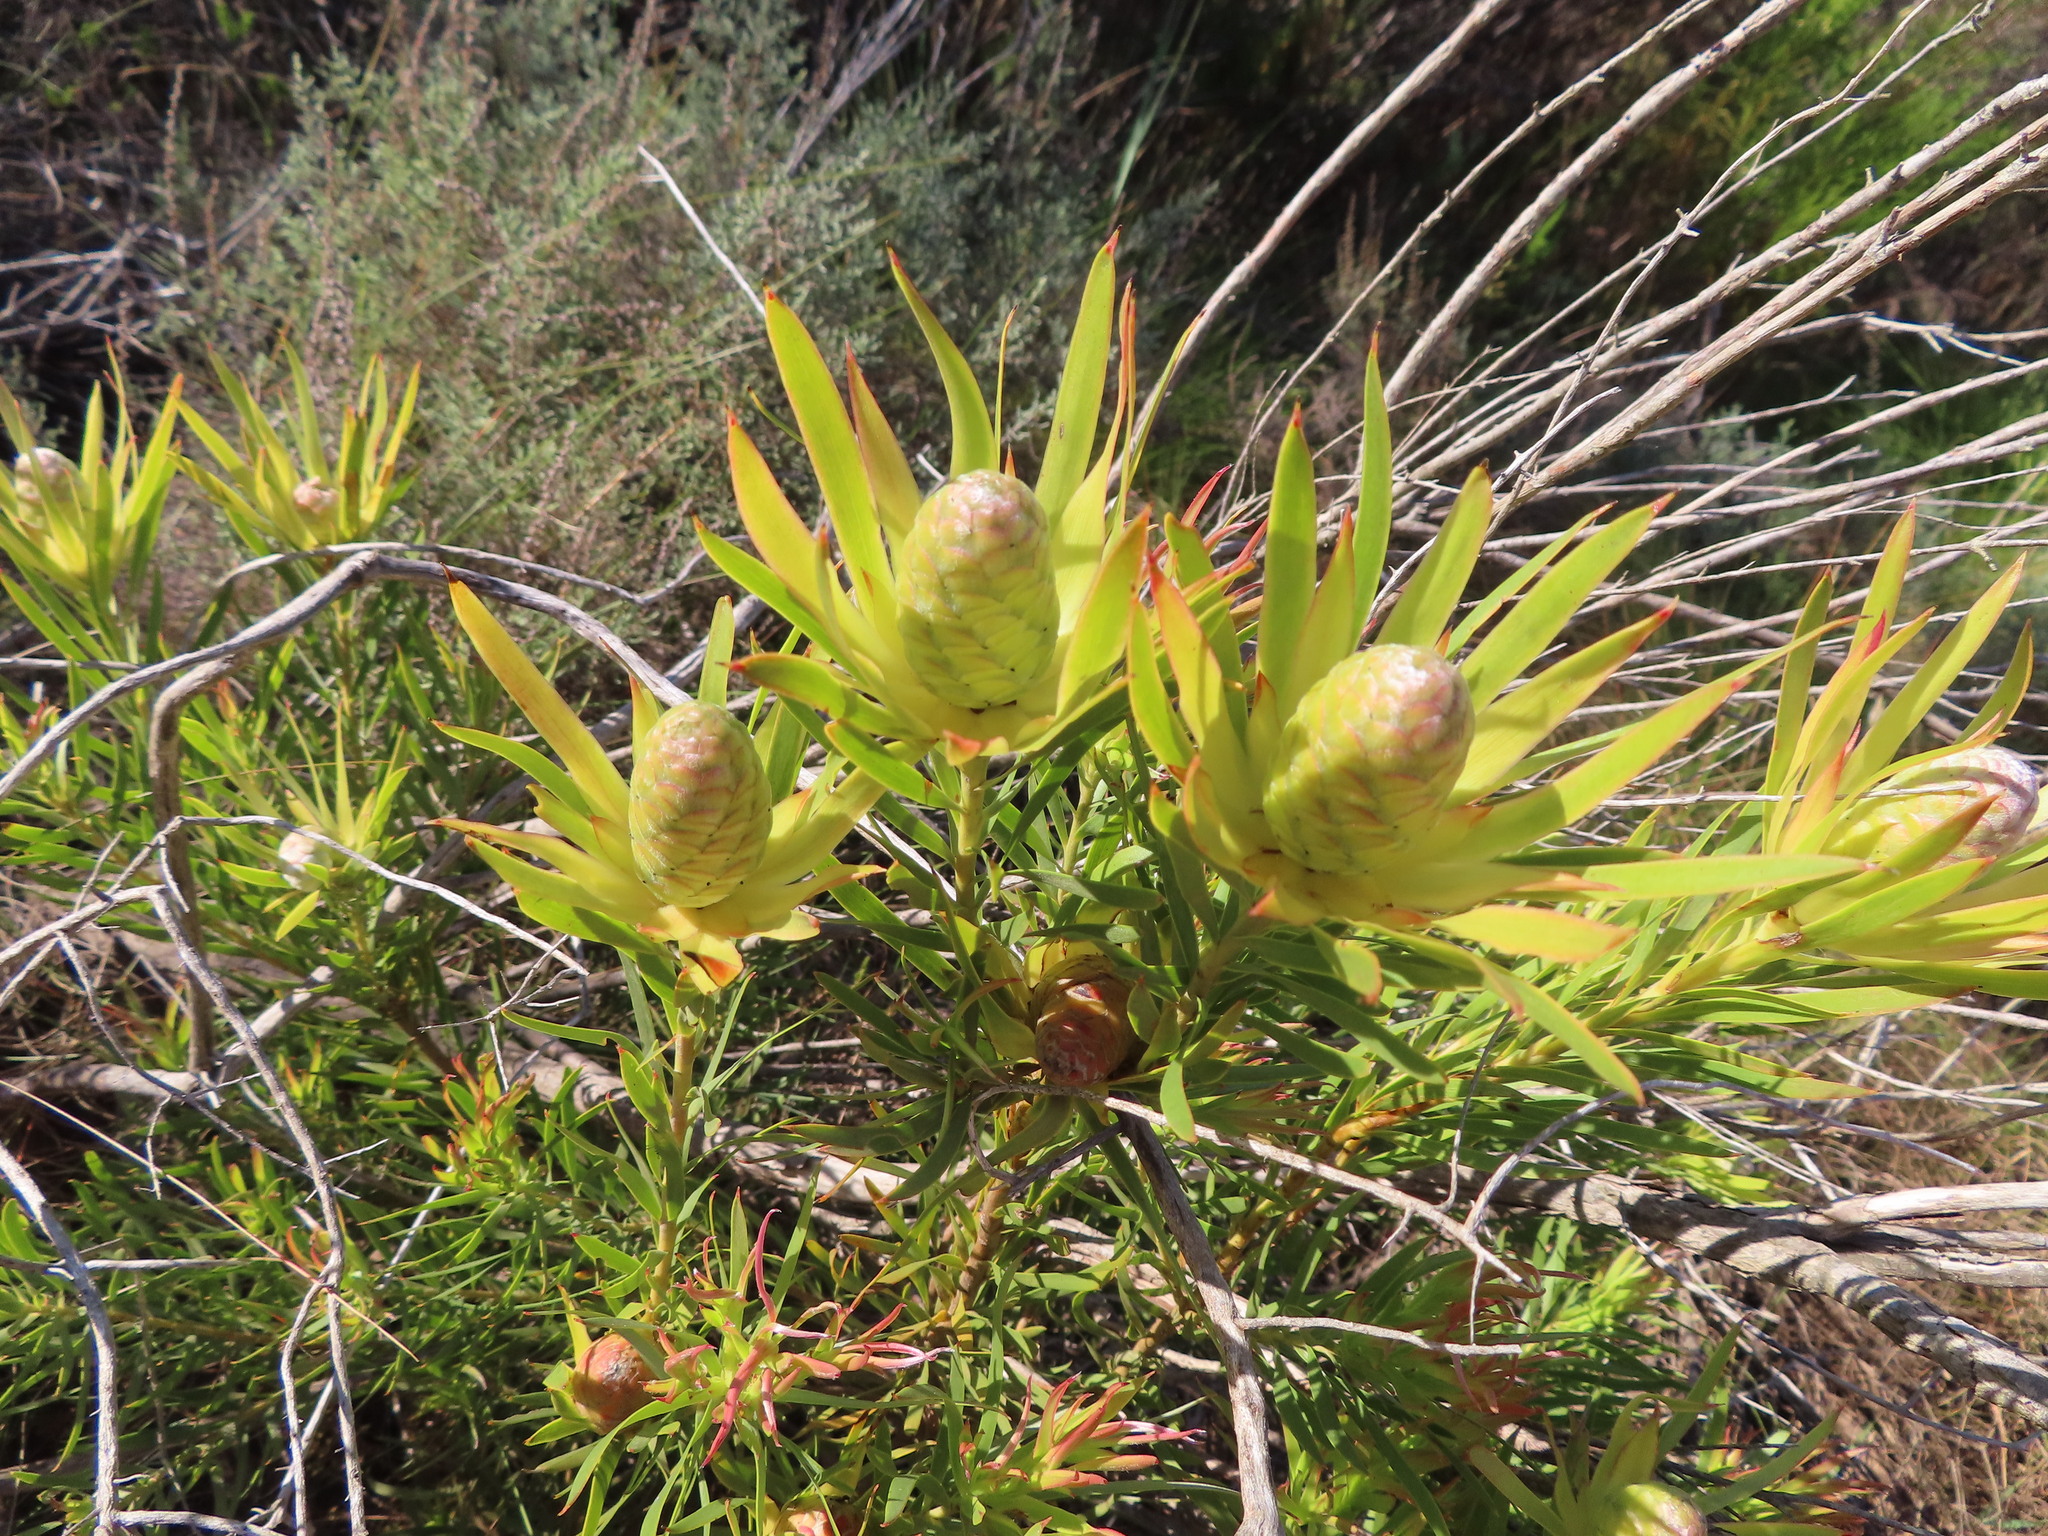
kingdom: Plantae
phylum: Tracheophyta
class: Magnoliopsida
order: Proteales
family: Proteaceae
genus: Leucadendron
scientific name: Leucadendron xanthoconus
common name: Sickle-leaf conebush
